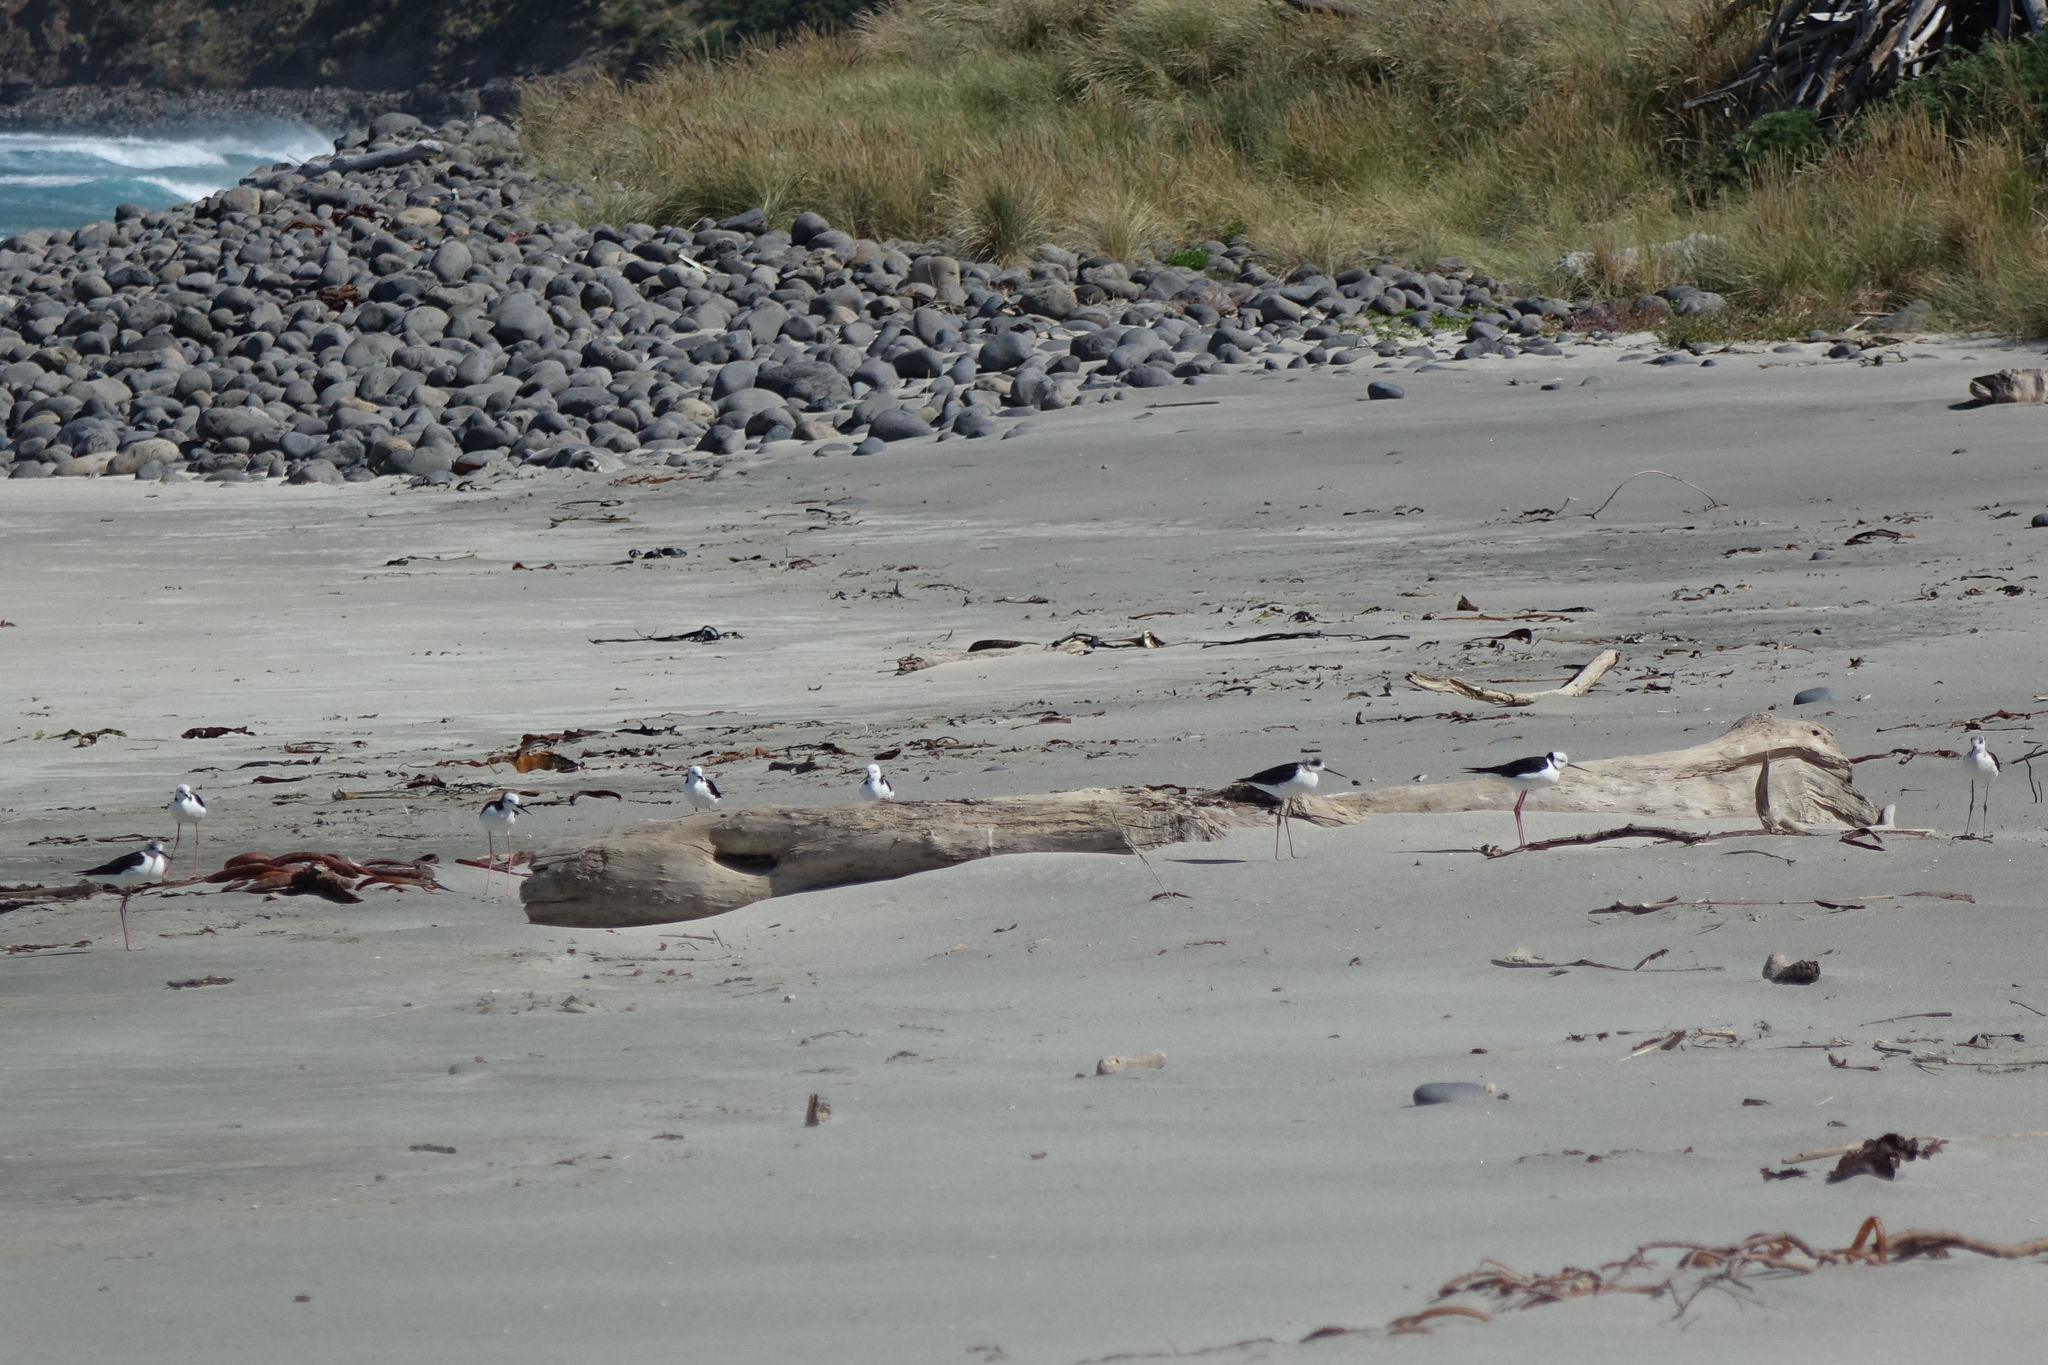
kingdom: Animalia
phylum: Chordata
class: Aves
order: Charadriiformes
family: Recurvirostridae
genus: Himantopus
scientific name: Himantopus leucocephalus
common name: White-headed stilt
